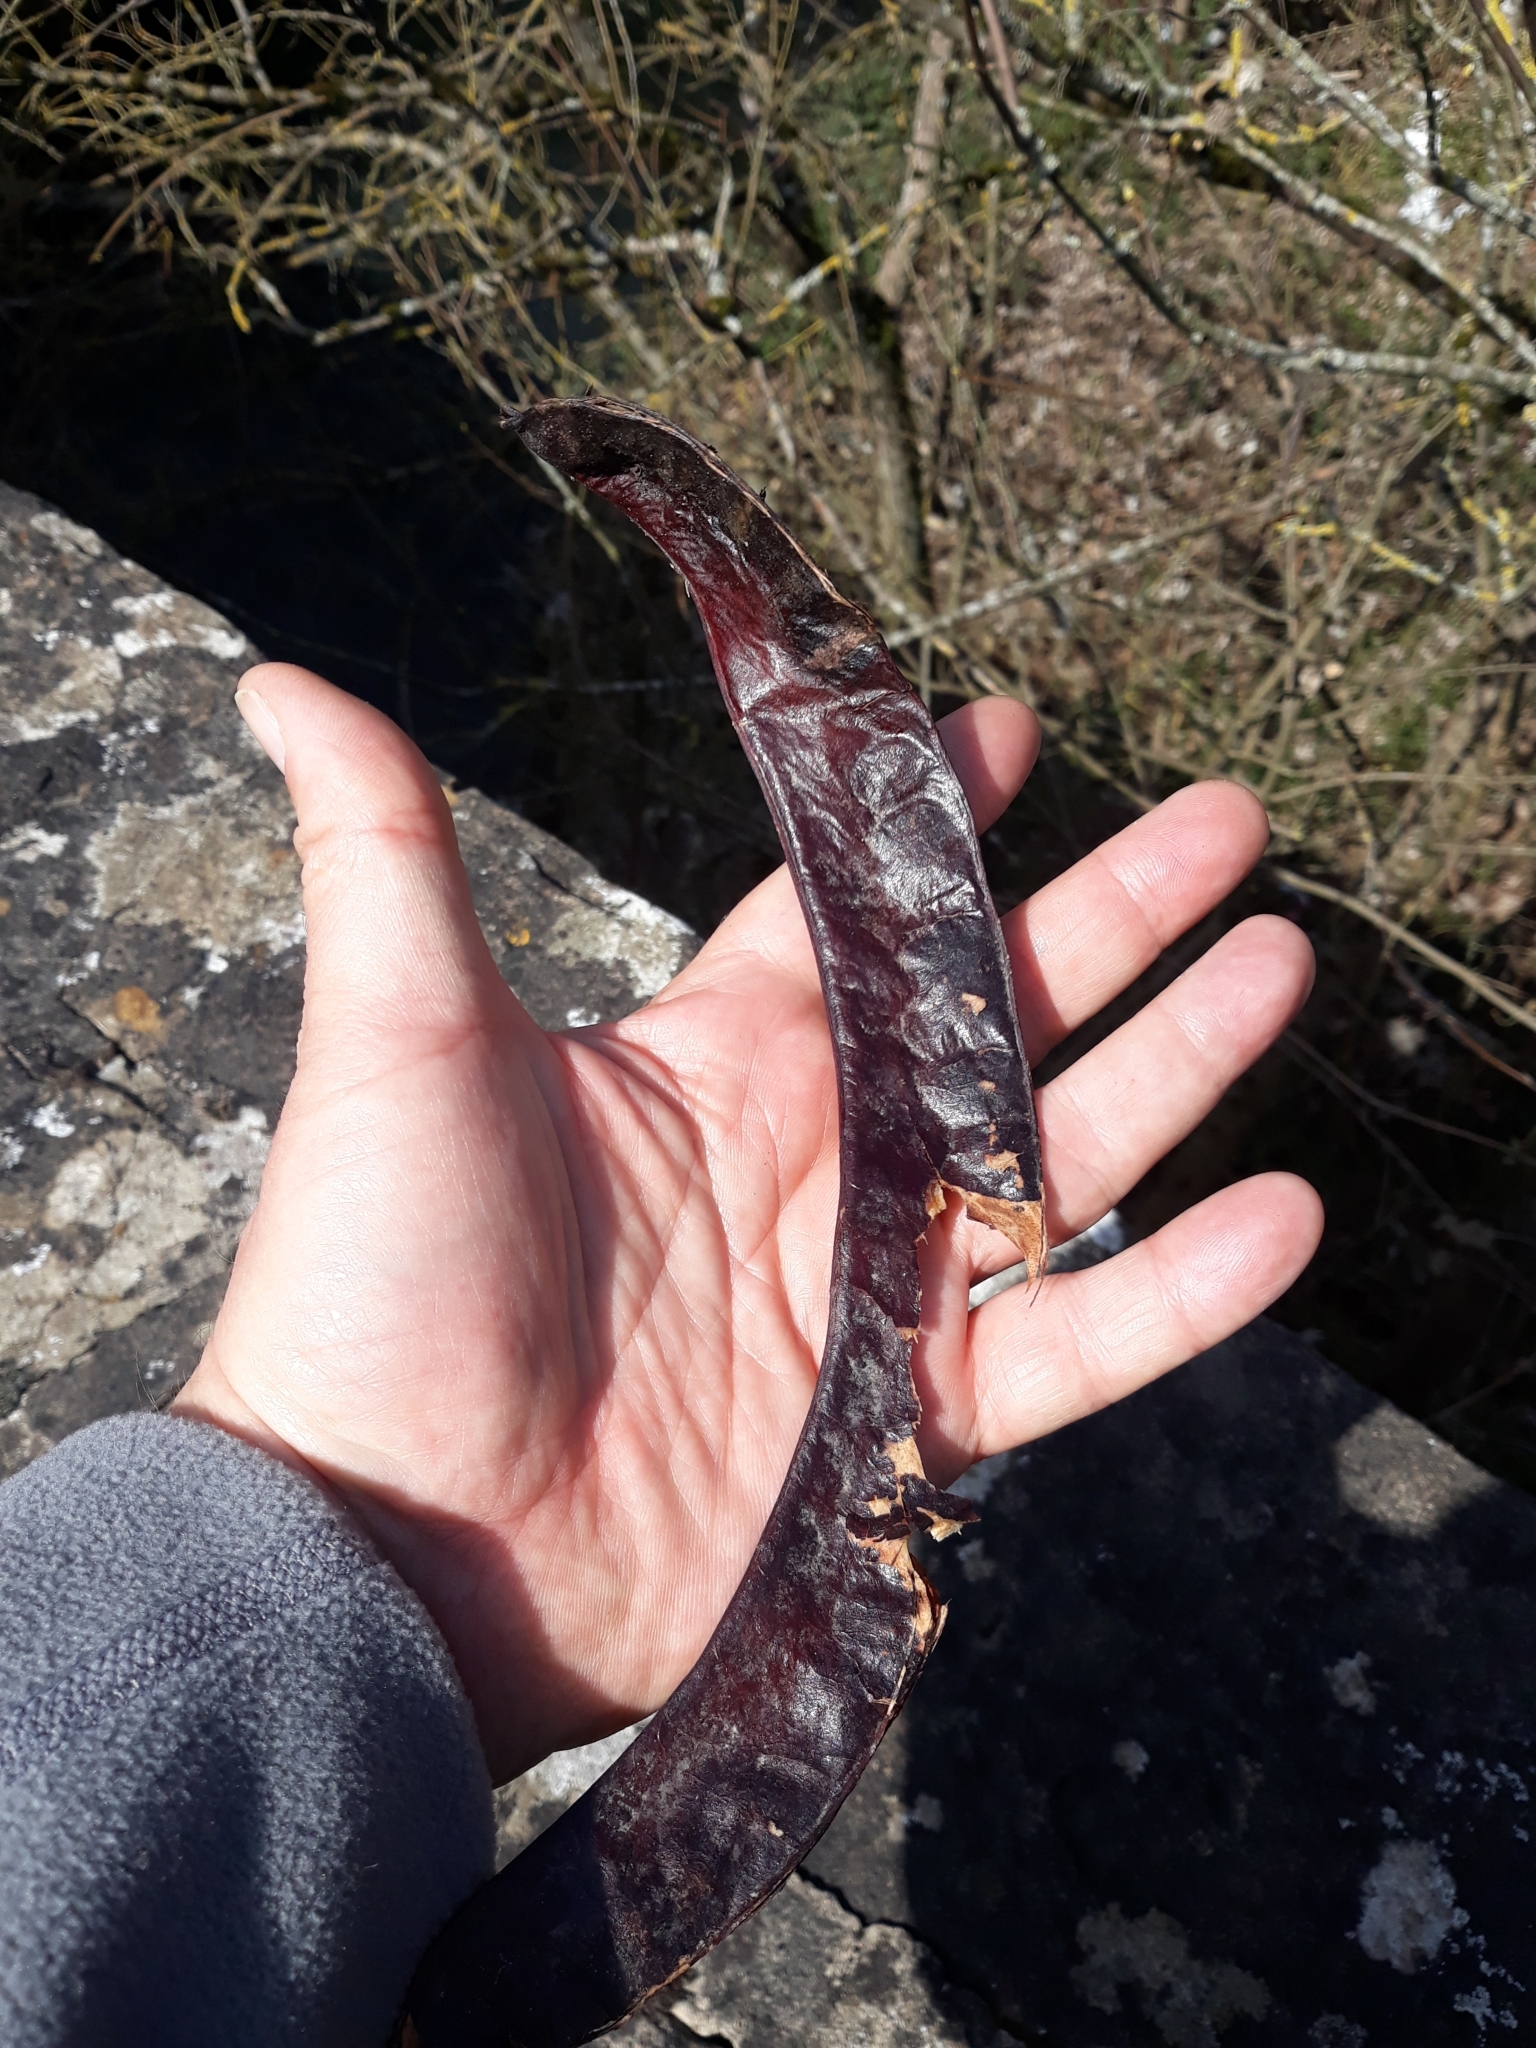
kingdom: Plantae
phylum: Tracheophyta
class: Magnoliopsida
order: Fabales
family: Fabaceae
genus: Gleditsia
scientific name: Gleditsia triacanthos
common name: Common honeylocust
